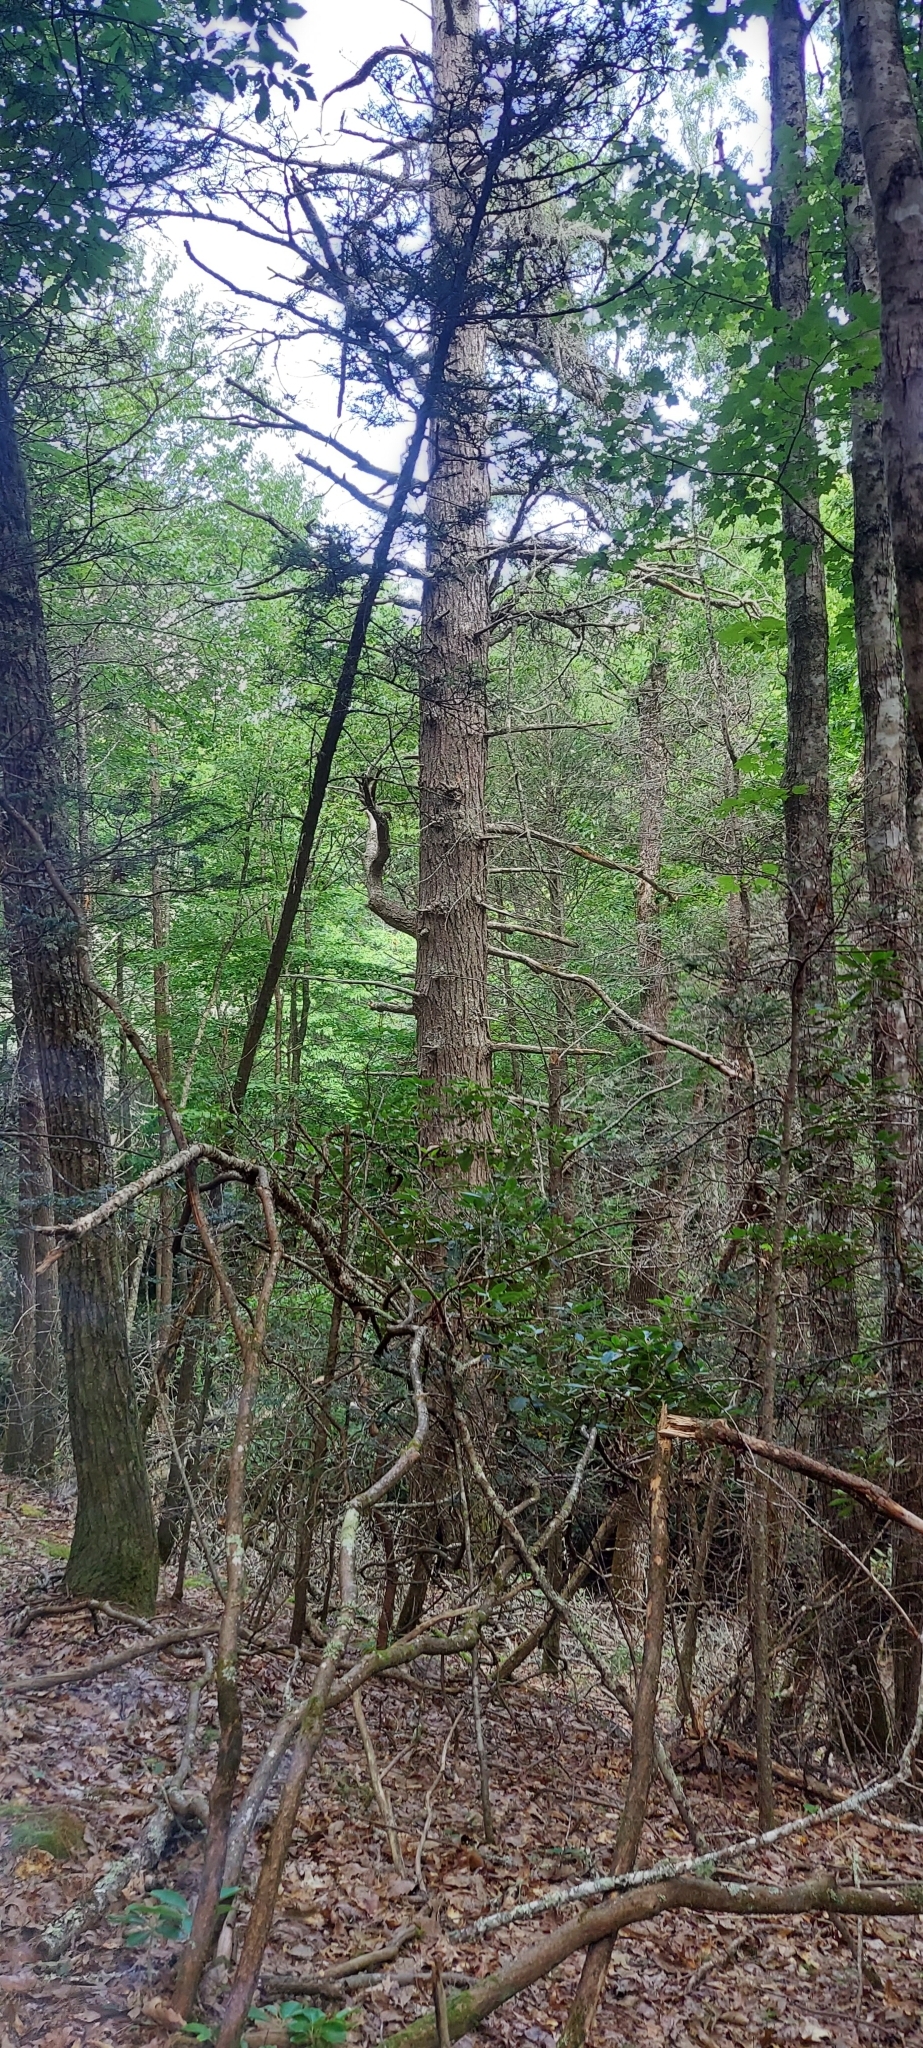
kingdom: Plantae
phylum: Tracheophyta
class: Pinopsida
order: Pinales
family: Pinaceae
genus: Pinus
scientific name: Pinus strobus
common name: Weymouth pine
